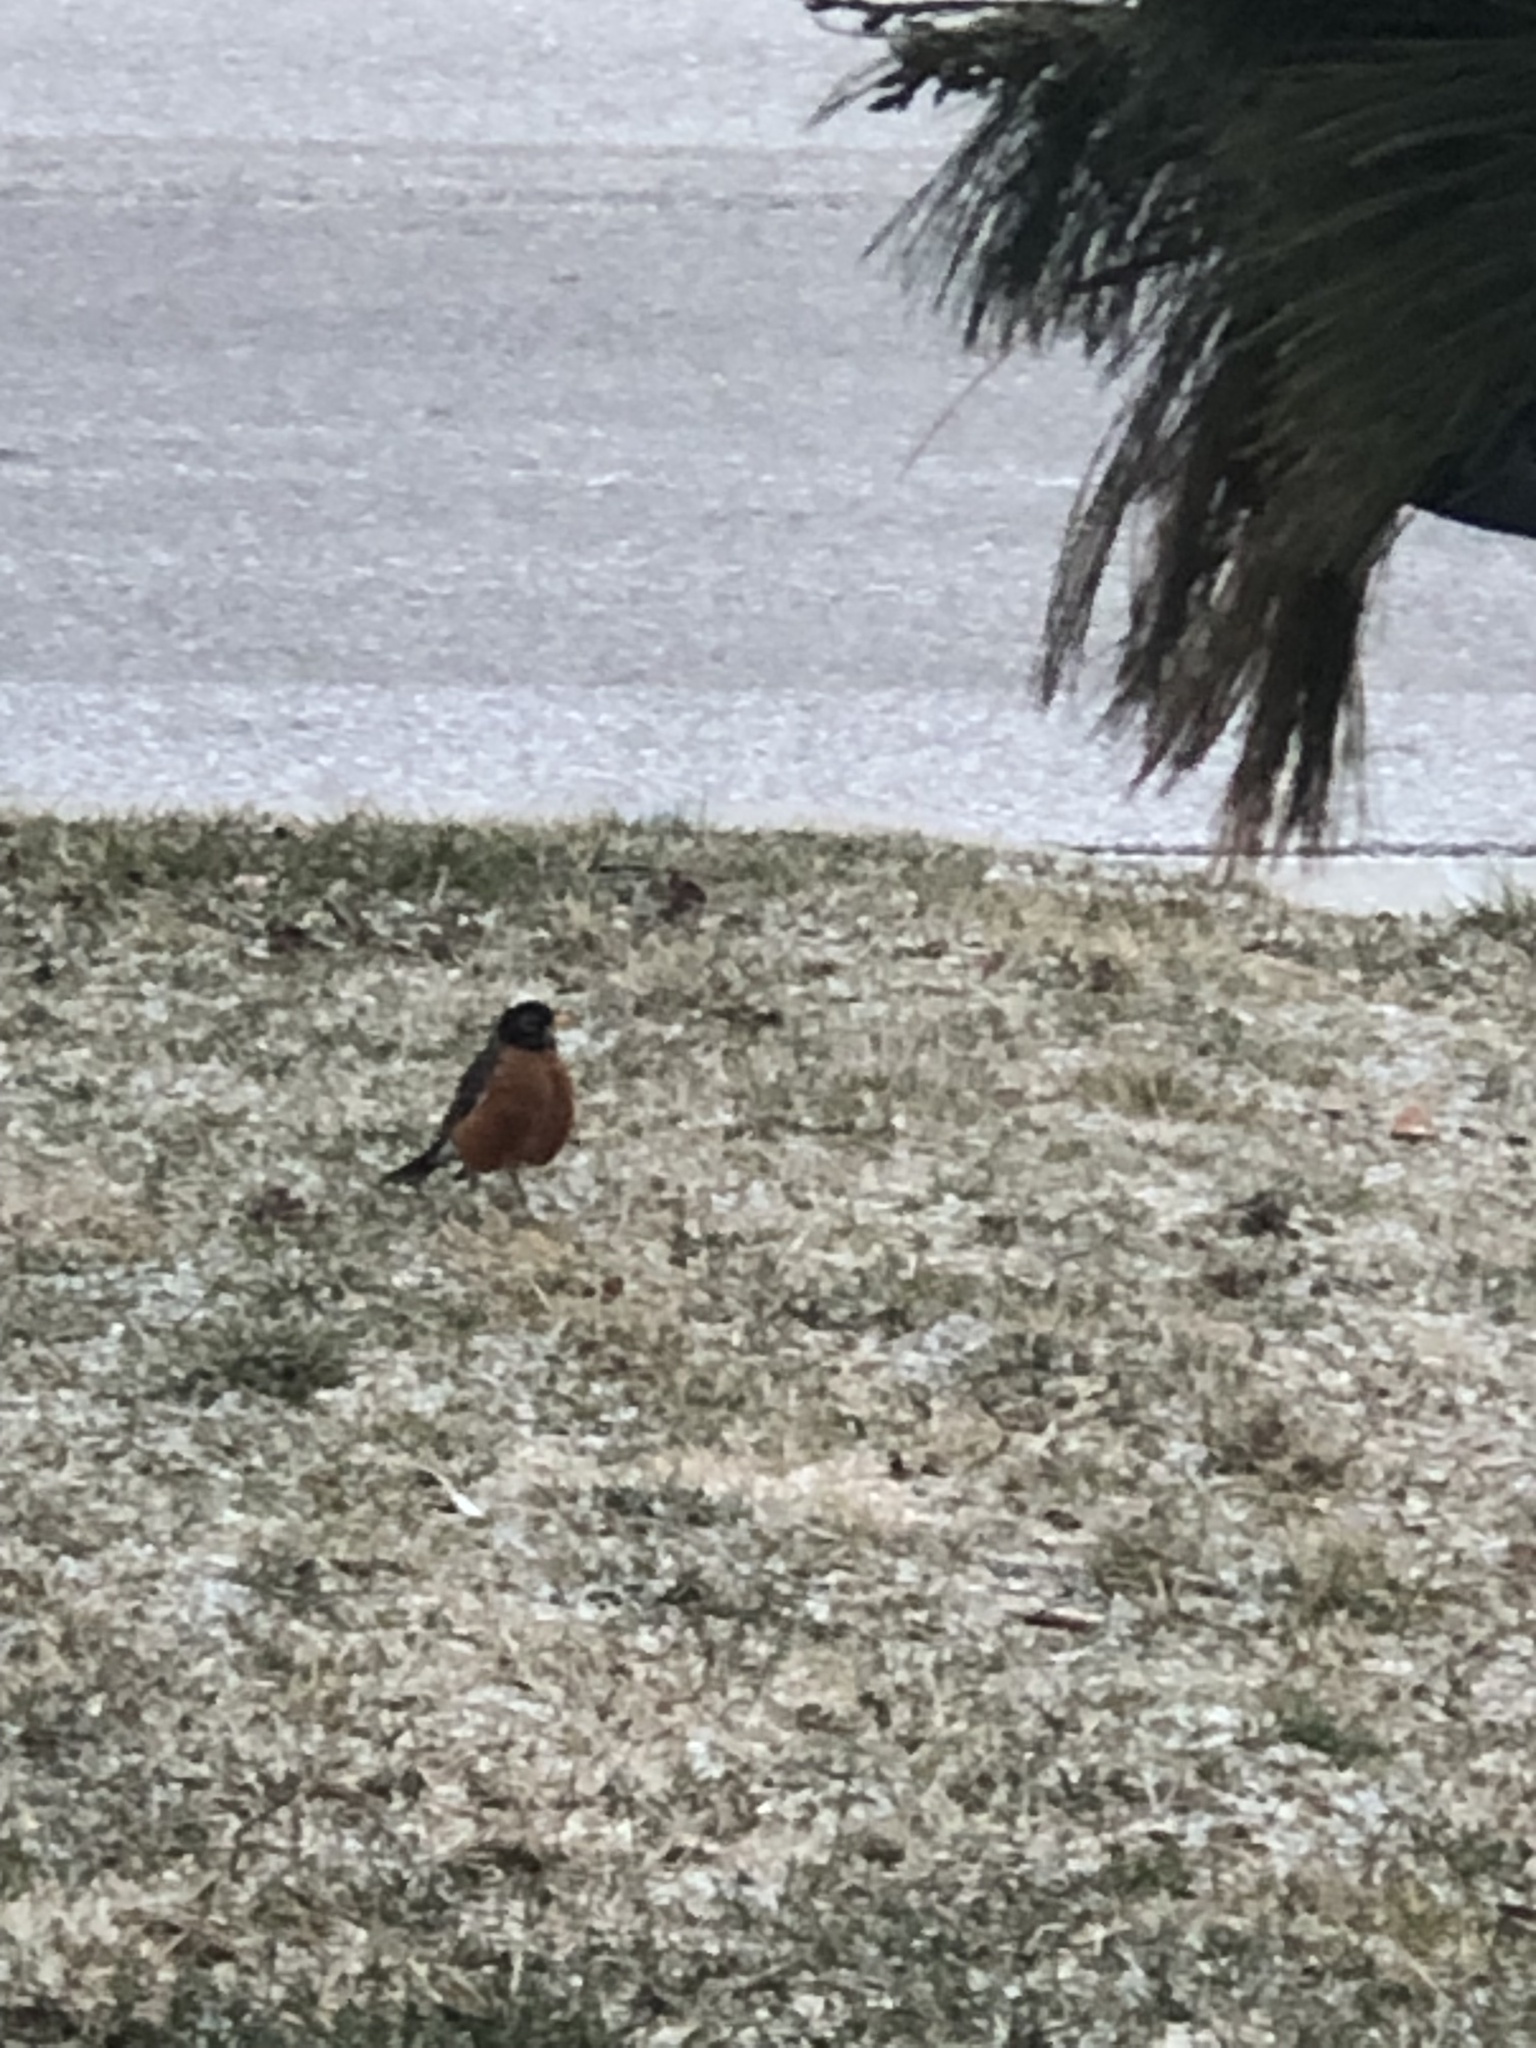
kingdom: Animalia
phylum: Chordata
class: Aves
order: Passeriformes
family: Turdidae
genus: Turdus
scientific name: Turdus migratorius
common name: American robin
